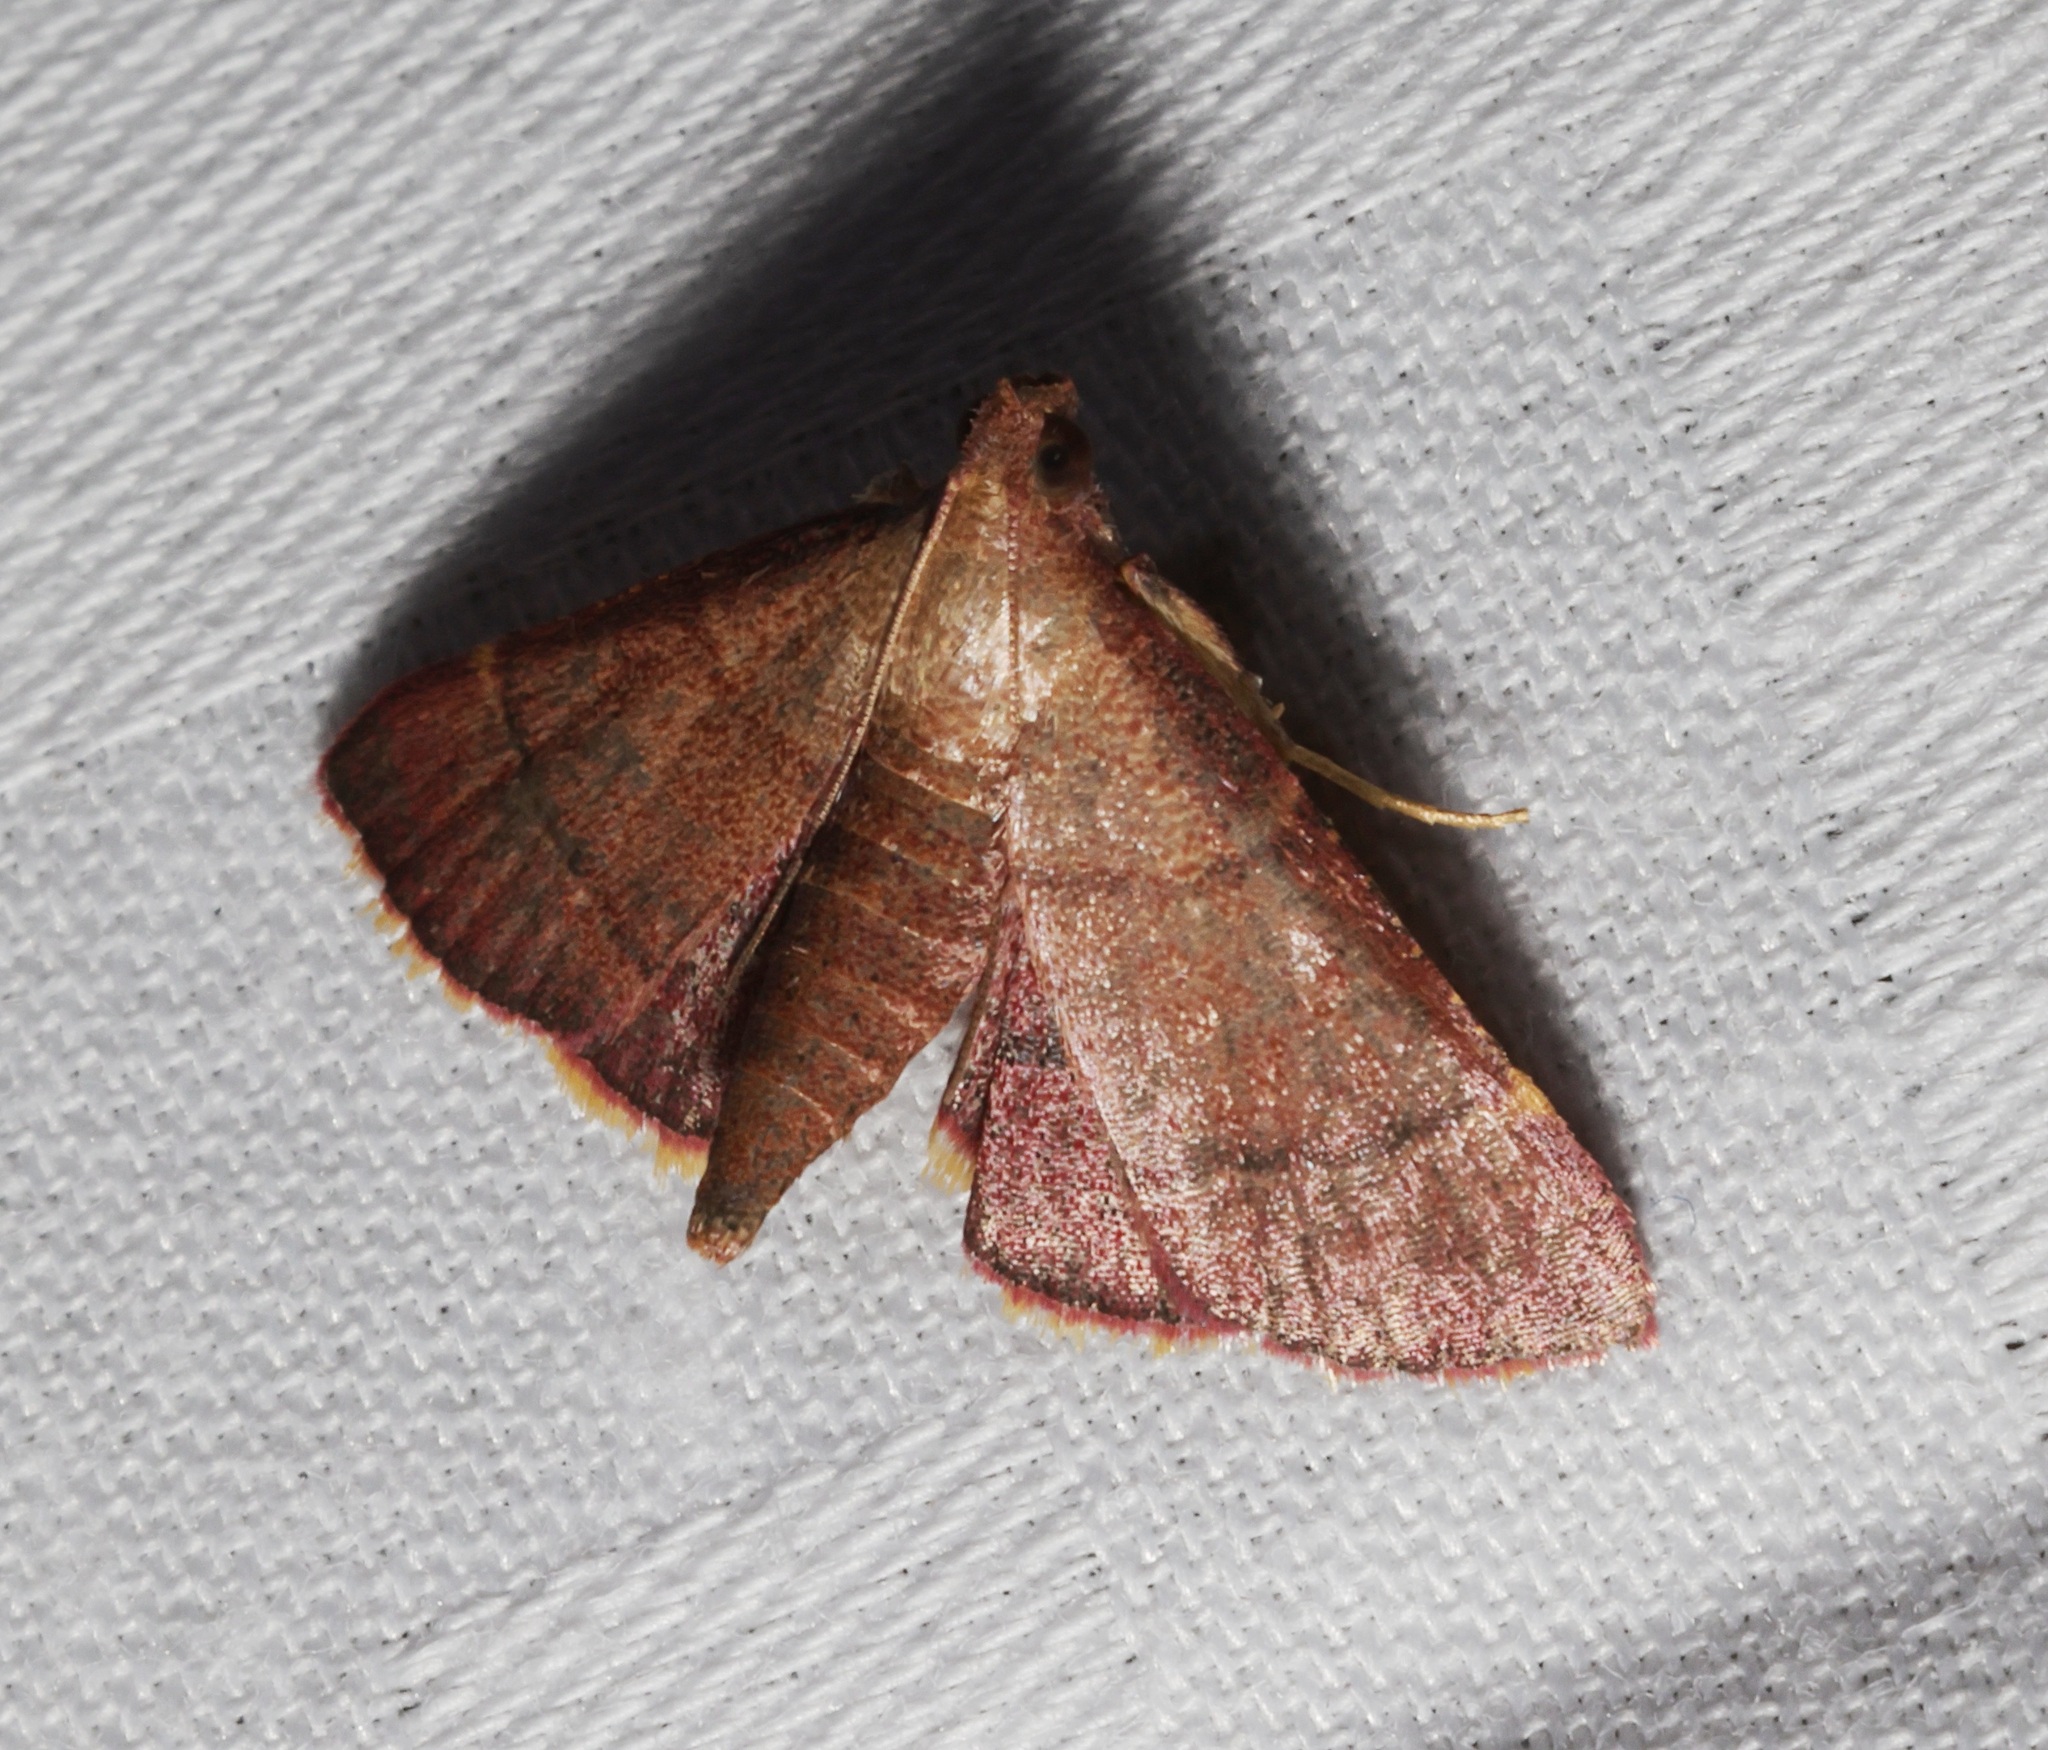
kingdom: Animalia
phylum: Arthropoda
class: Insecta
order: Lepidoptera
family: Pyralidae
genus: Hypsopygia
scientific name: Hypsopygia
